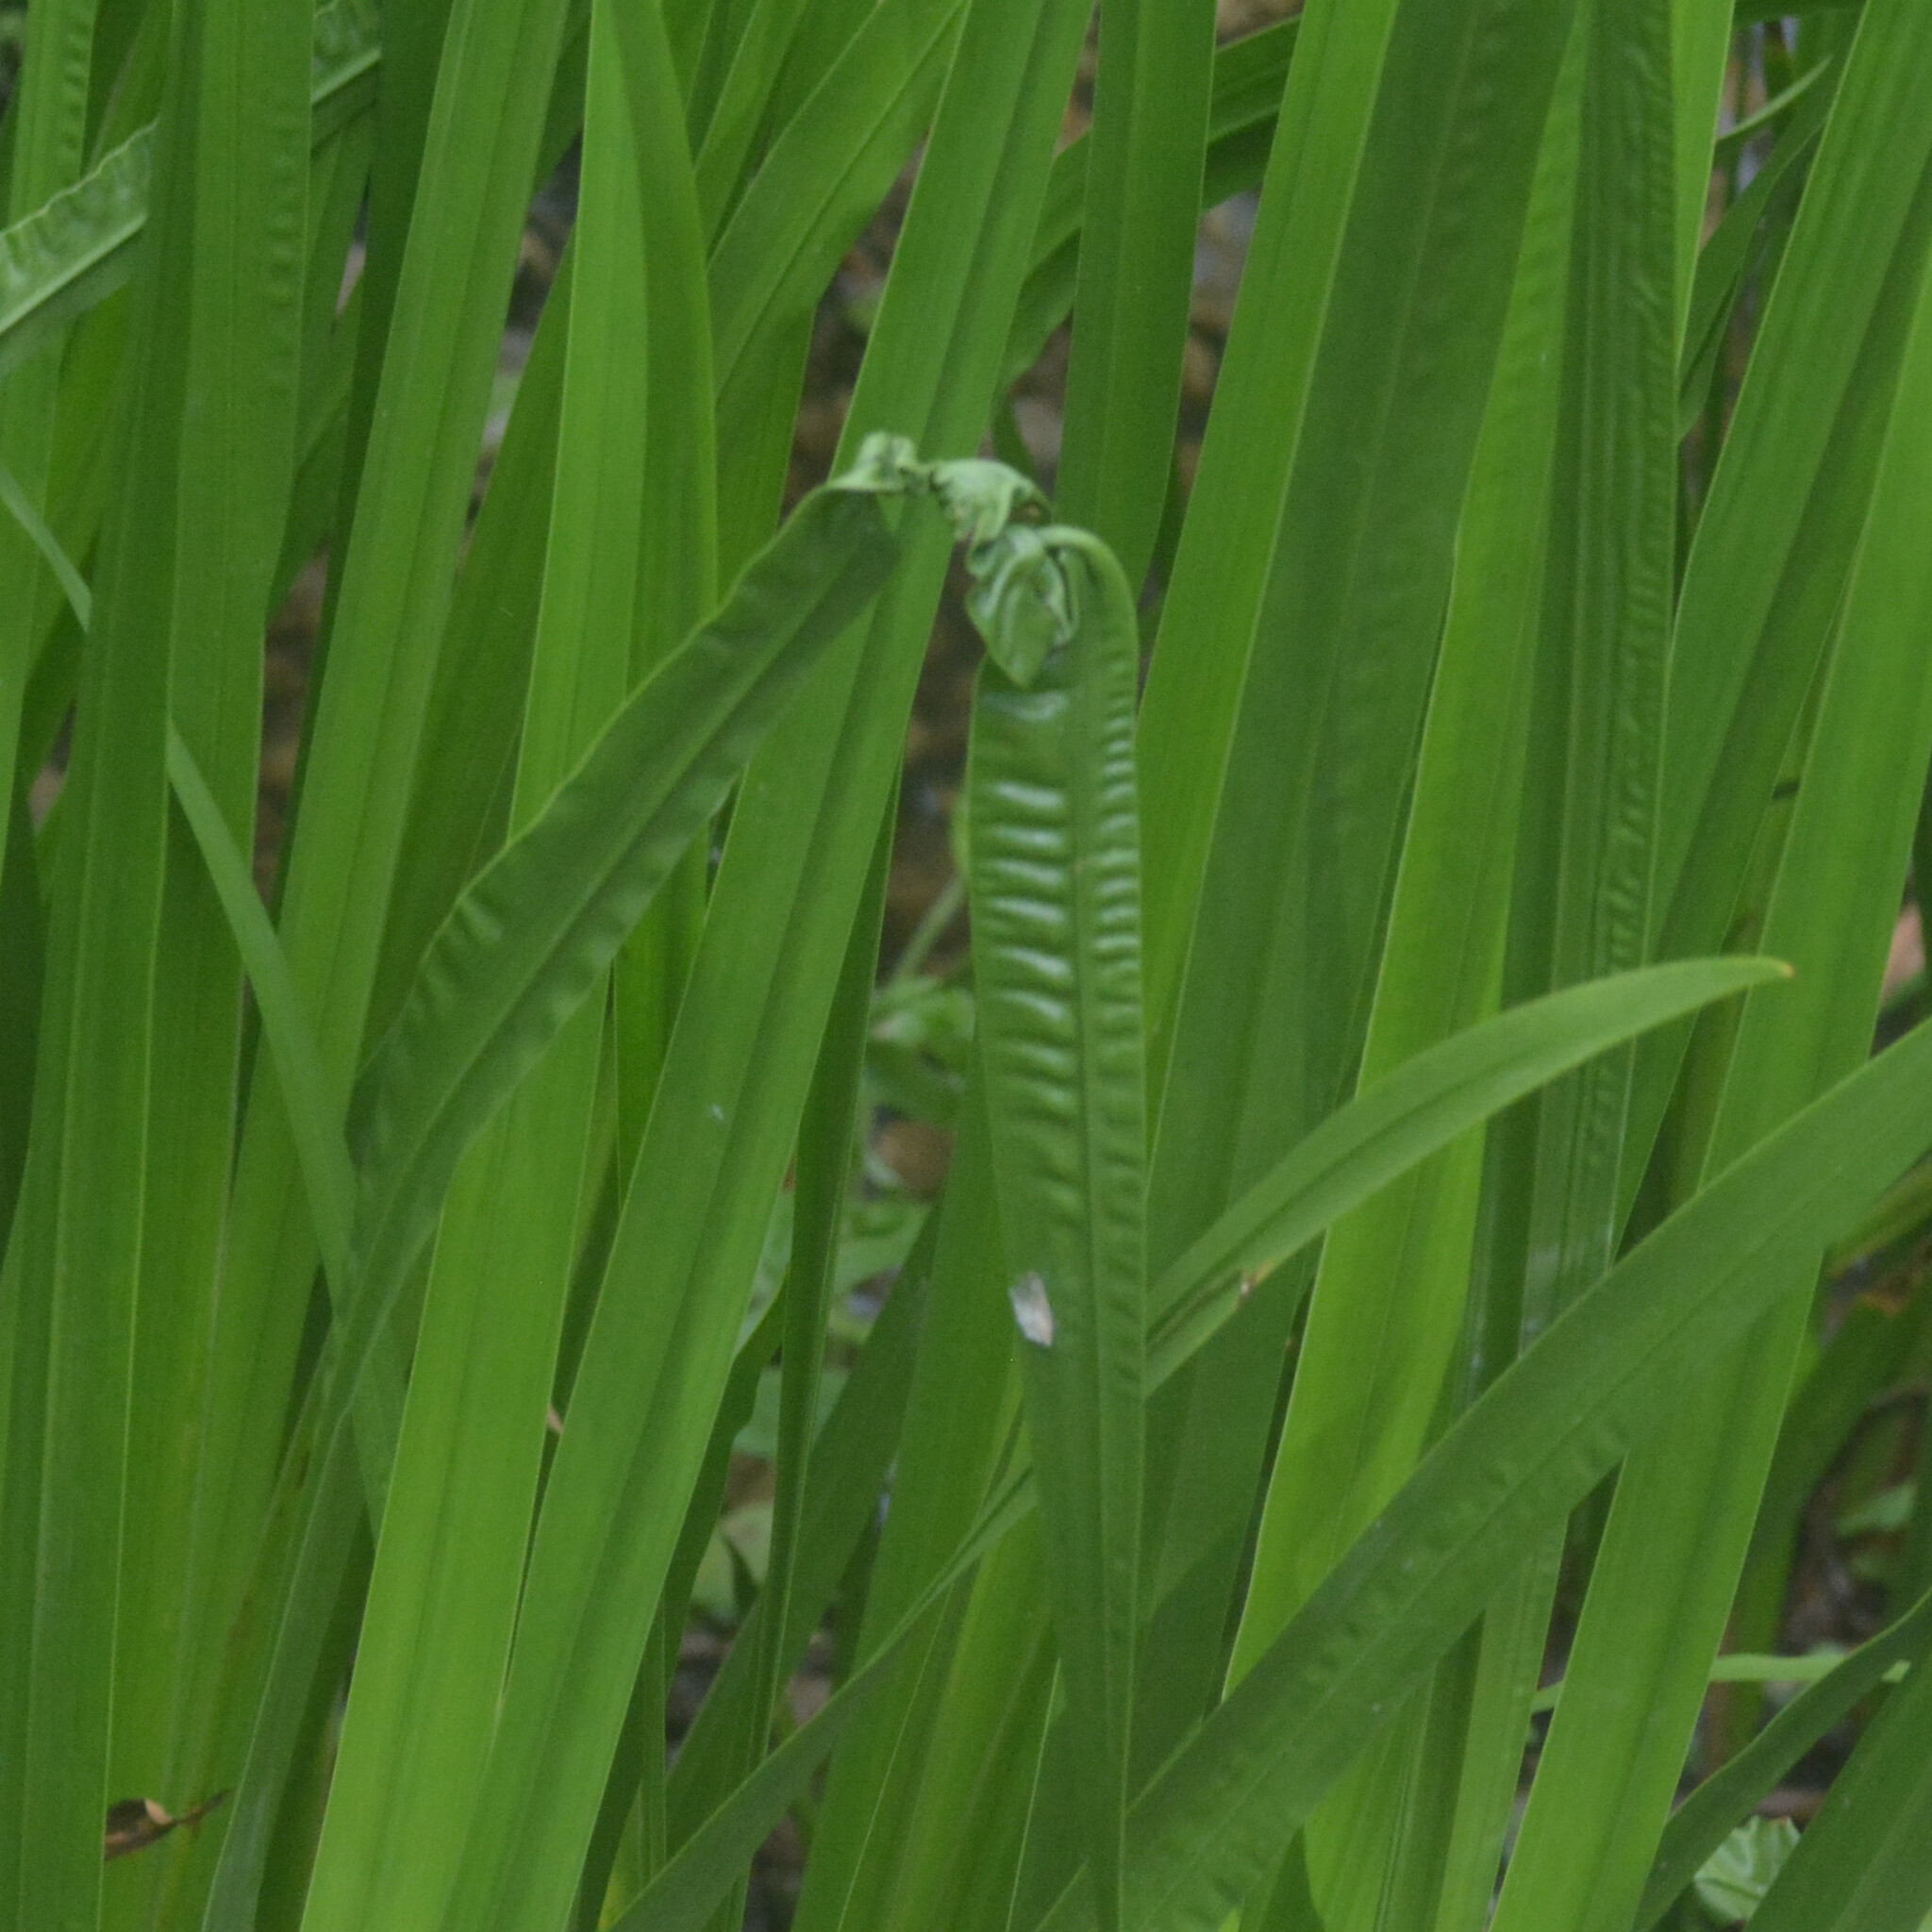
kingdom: Plantae
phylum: Tracheophyta
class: Liliopsida
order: Acorales
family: Acoraceae
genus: Acorus
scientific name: Acorus calamus
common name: Sweet-flag
